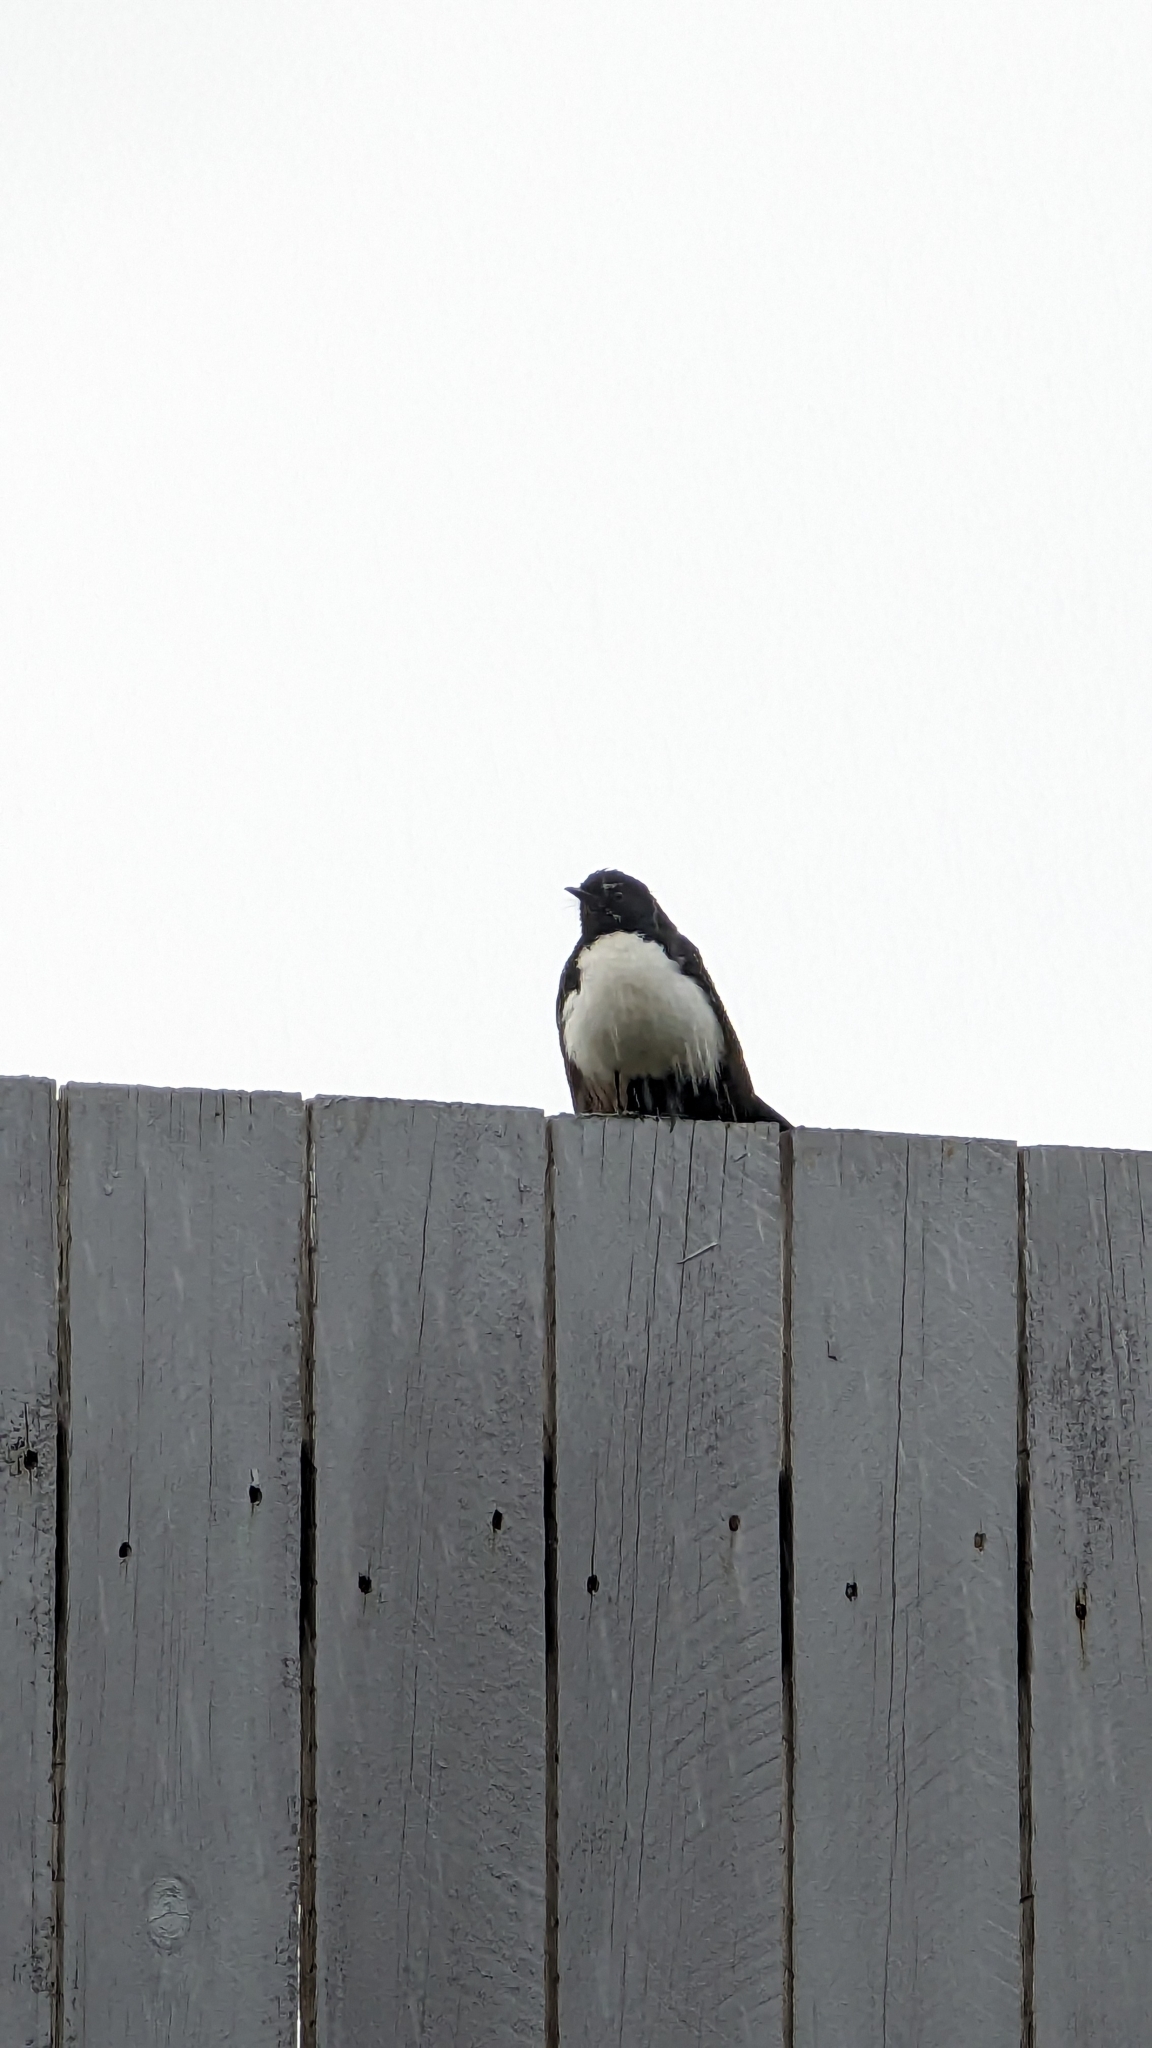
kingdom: Animalia
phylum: Chordata
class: Aves
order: Passeriformes
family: Rhipiduridae
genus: Rhipidura
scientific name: Rhipidura leucophrys
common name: Willie wagtail
